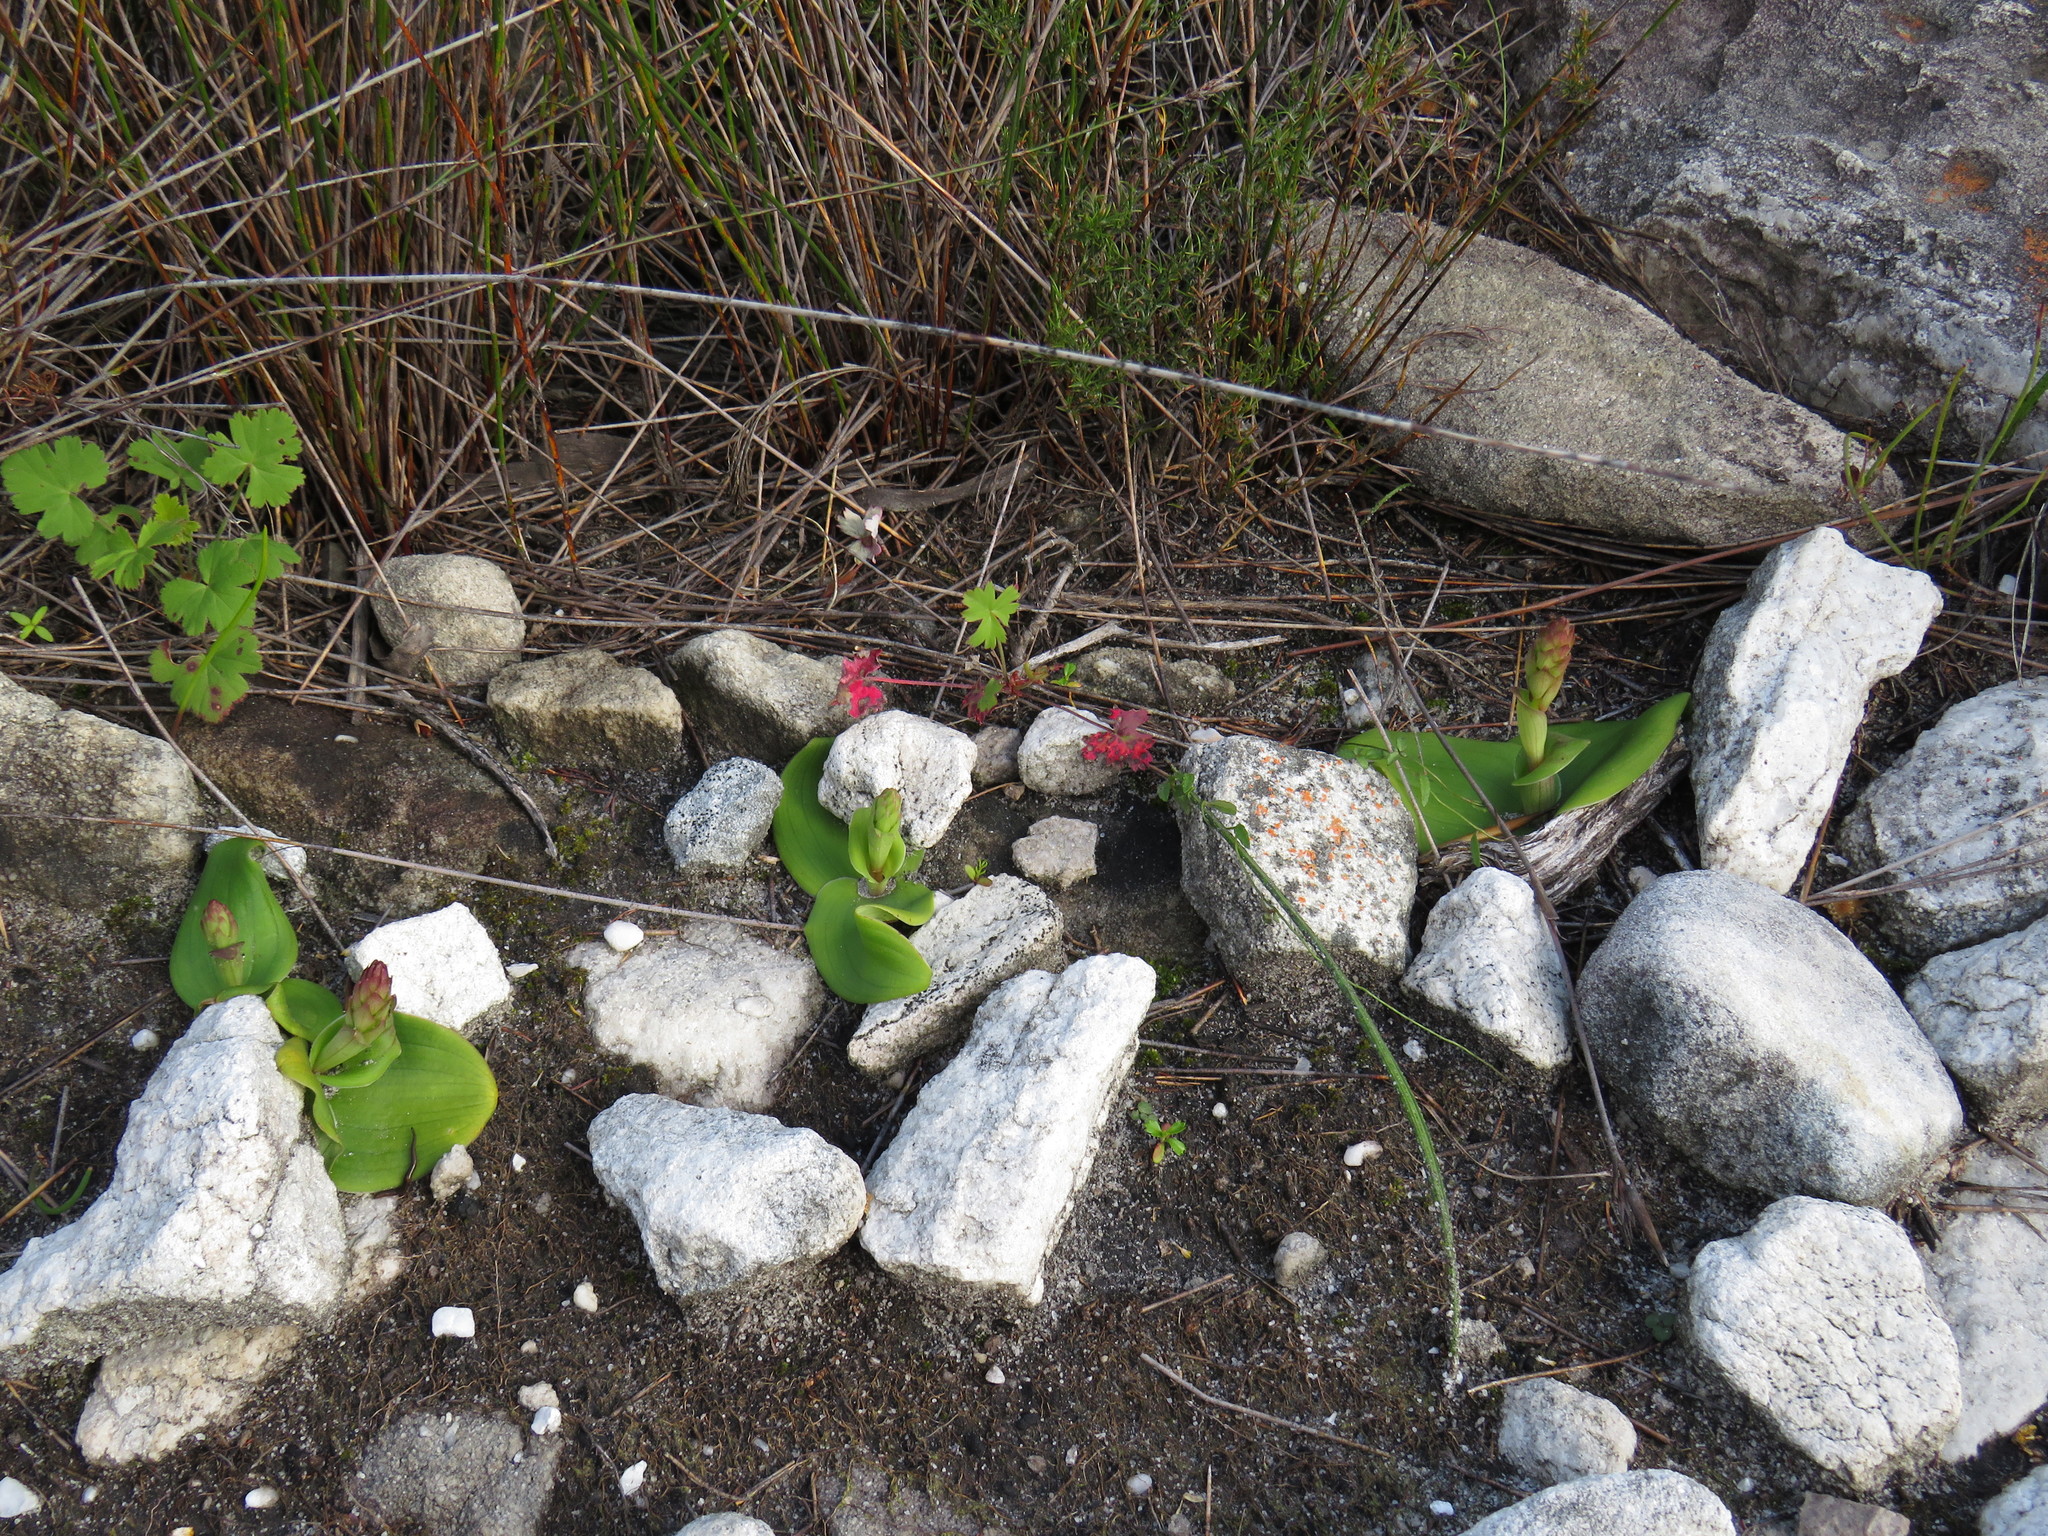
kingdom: Plantae
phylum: Tracheophyta
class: Liliopsida
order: Asparagales
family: Orchidaceae
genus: Satyrium
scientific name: Satyrium humile
